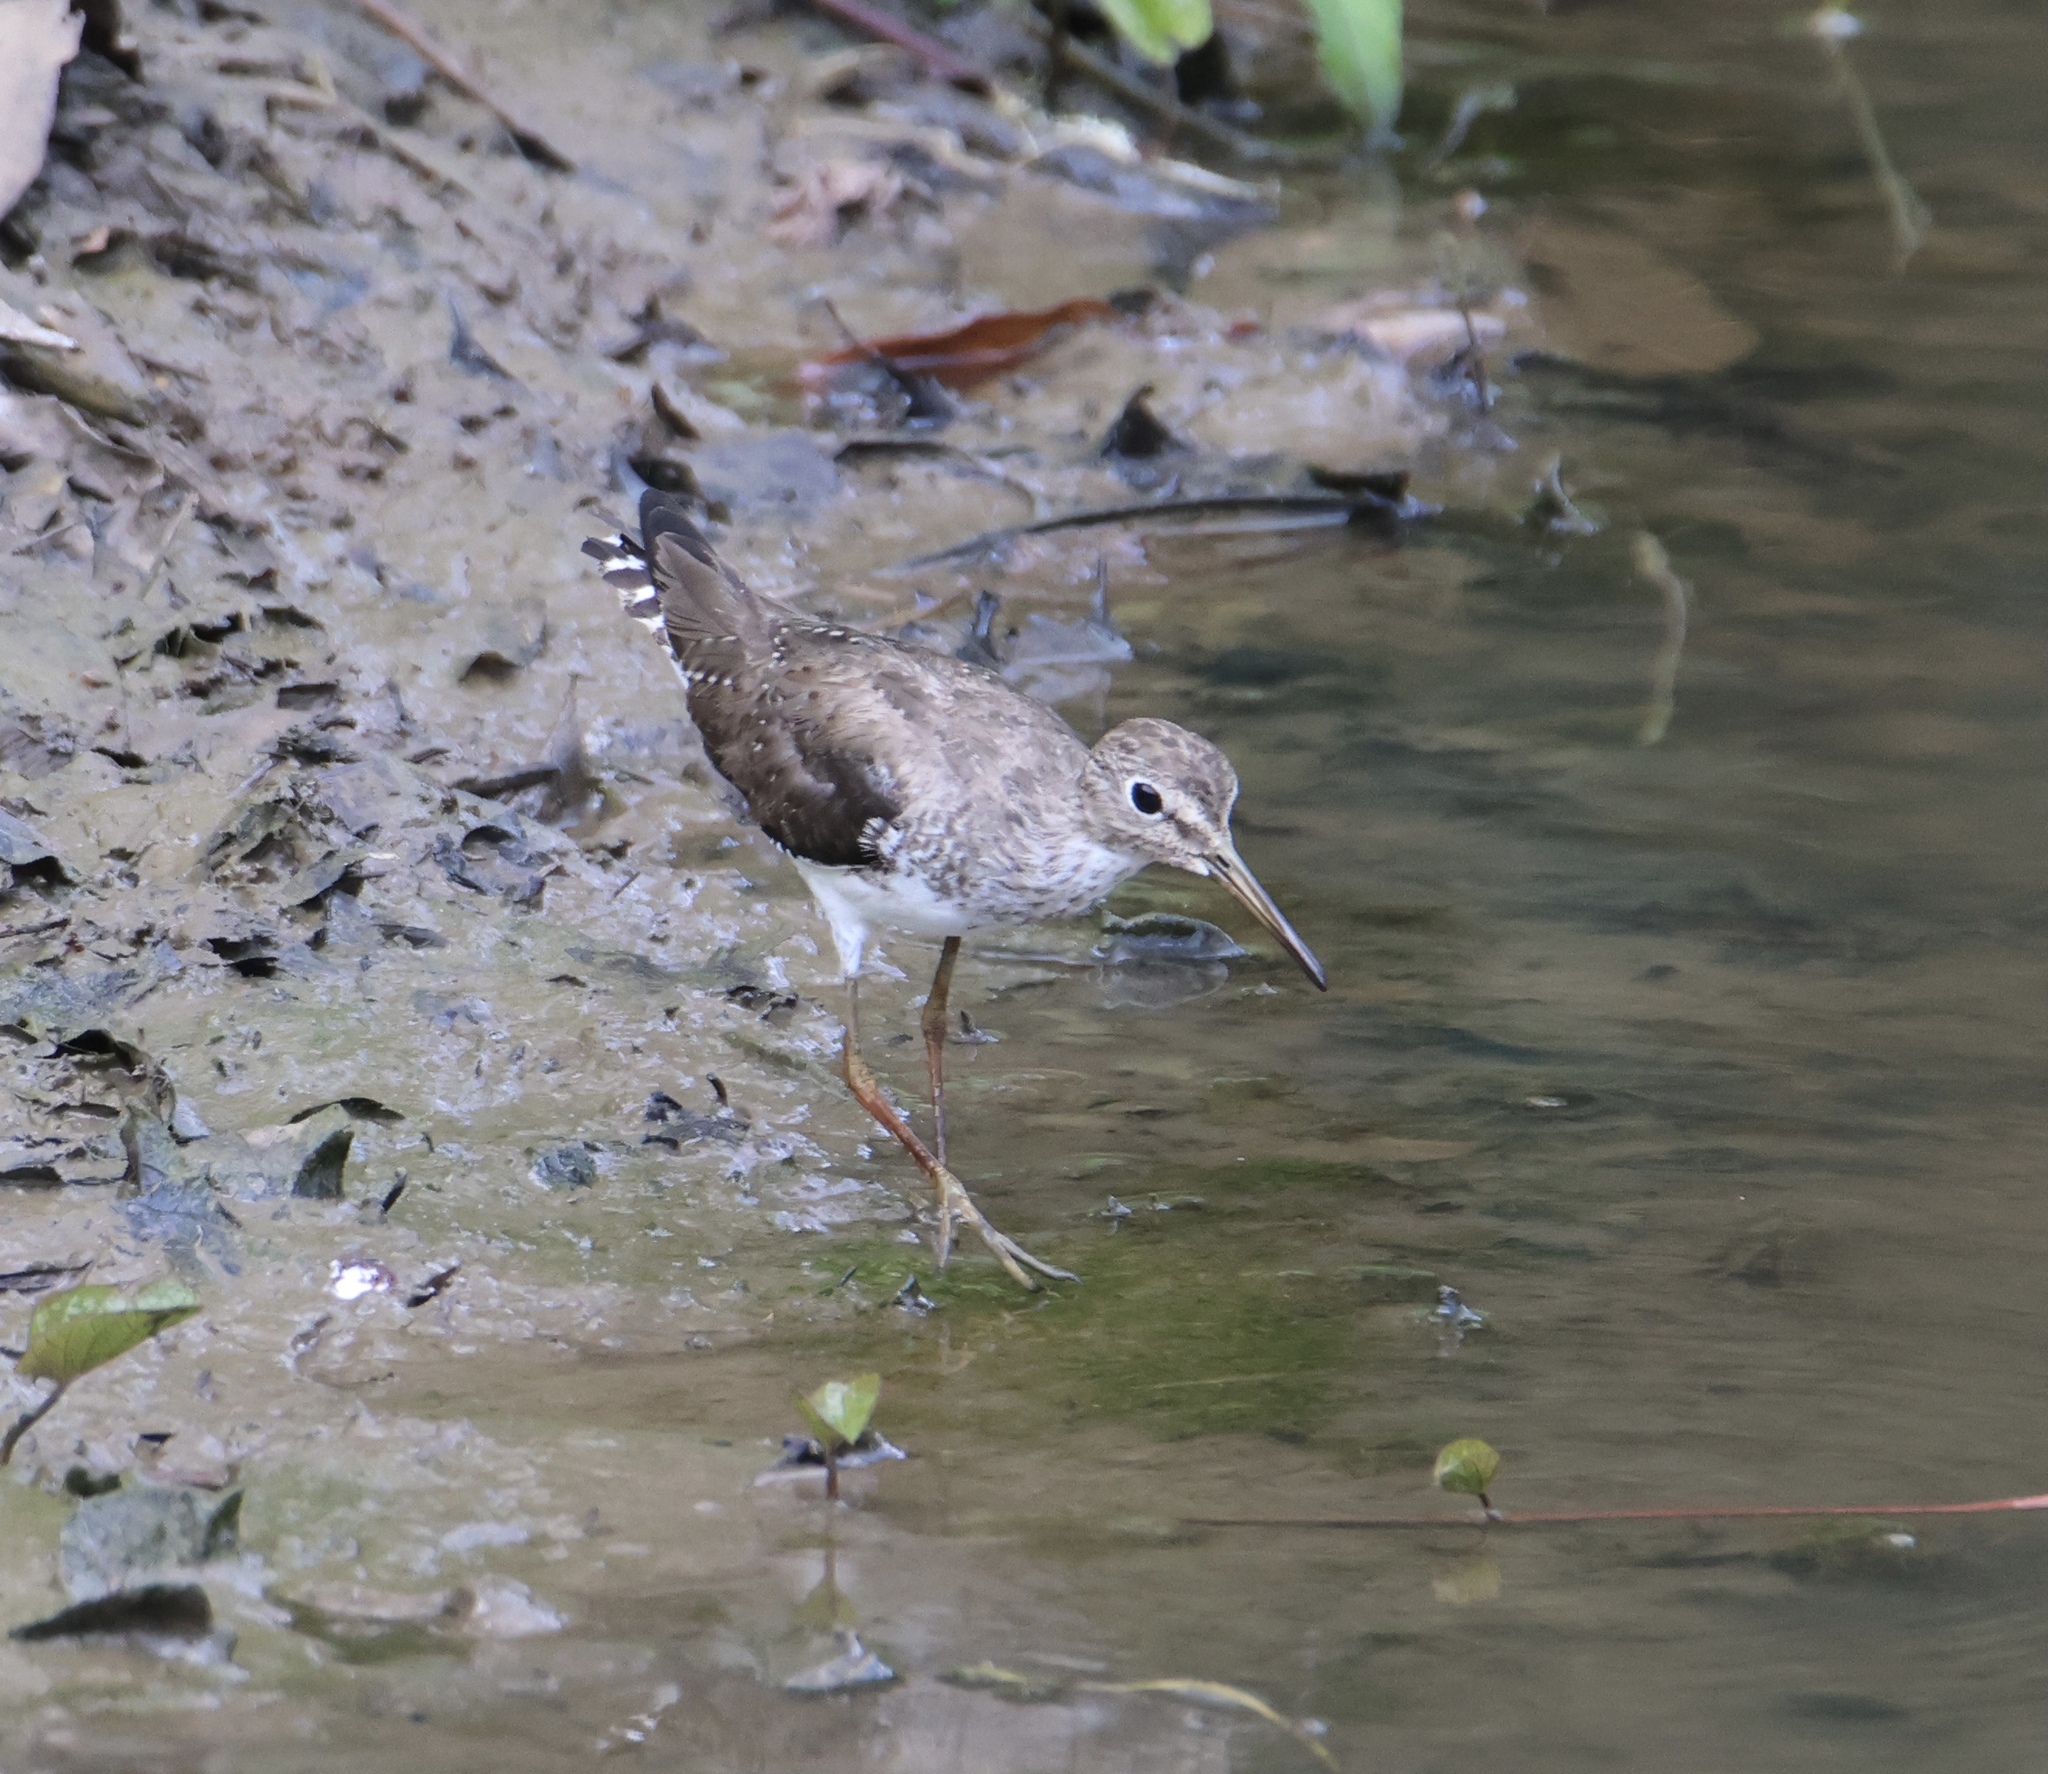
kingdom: Animalia
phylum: Chordata
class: Aves
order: Charadriiformes
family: Scolopacidae
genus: Tringa
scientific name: Tringa solitaria
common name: Solitary sandpiper
